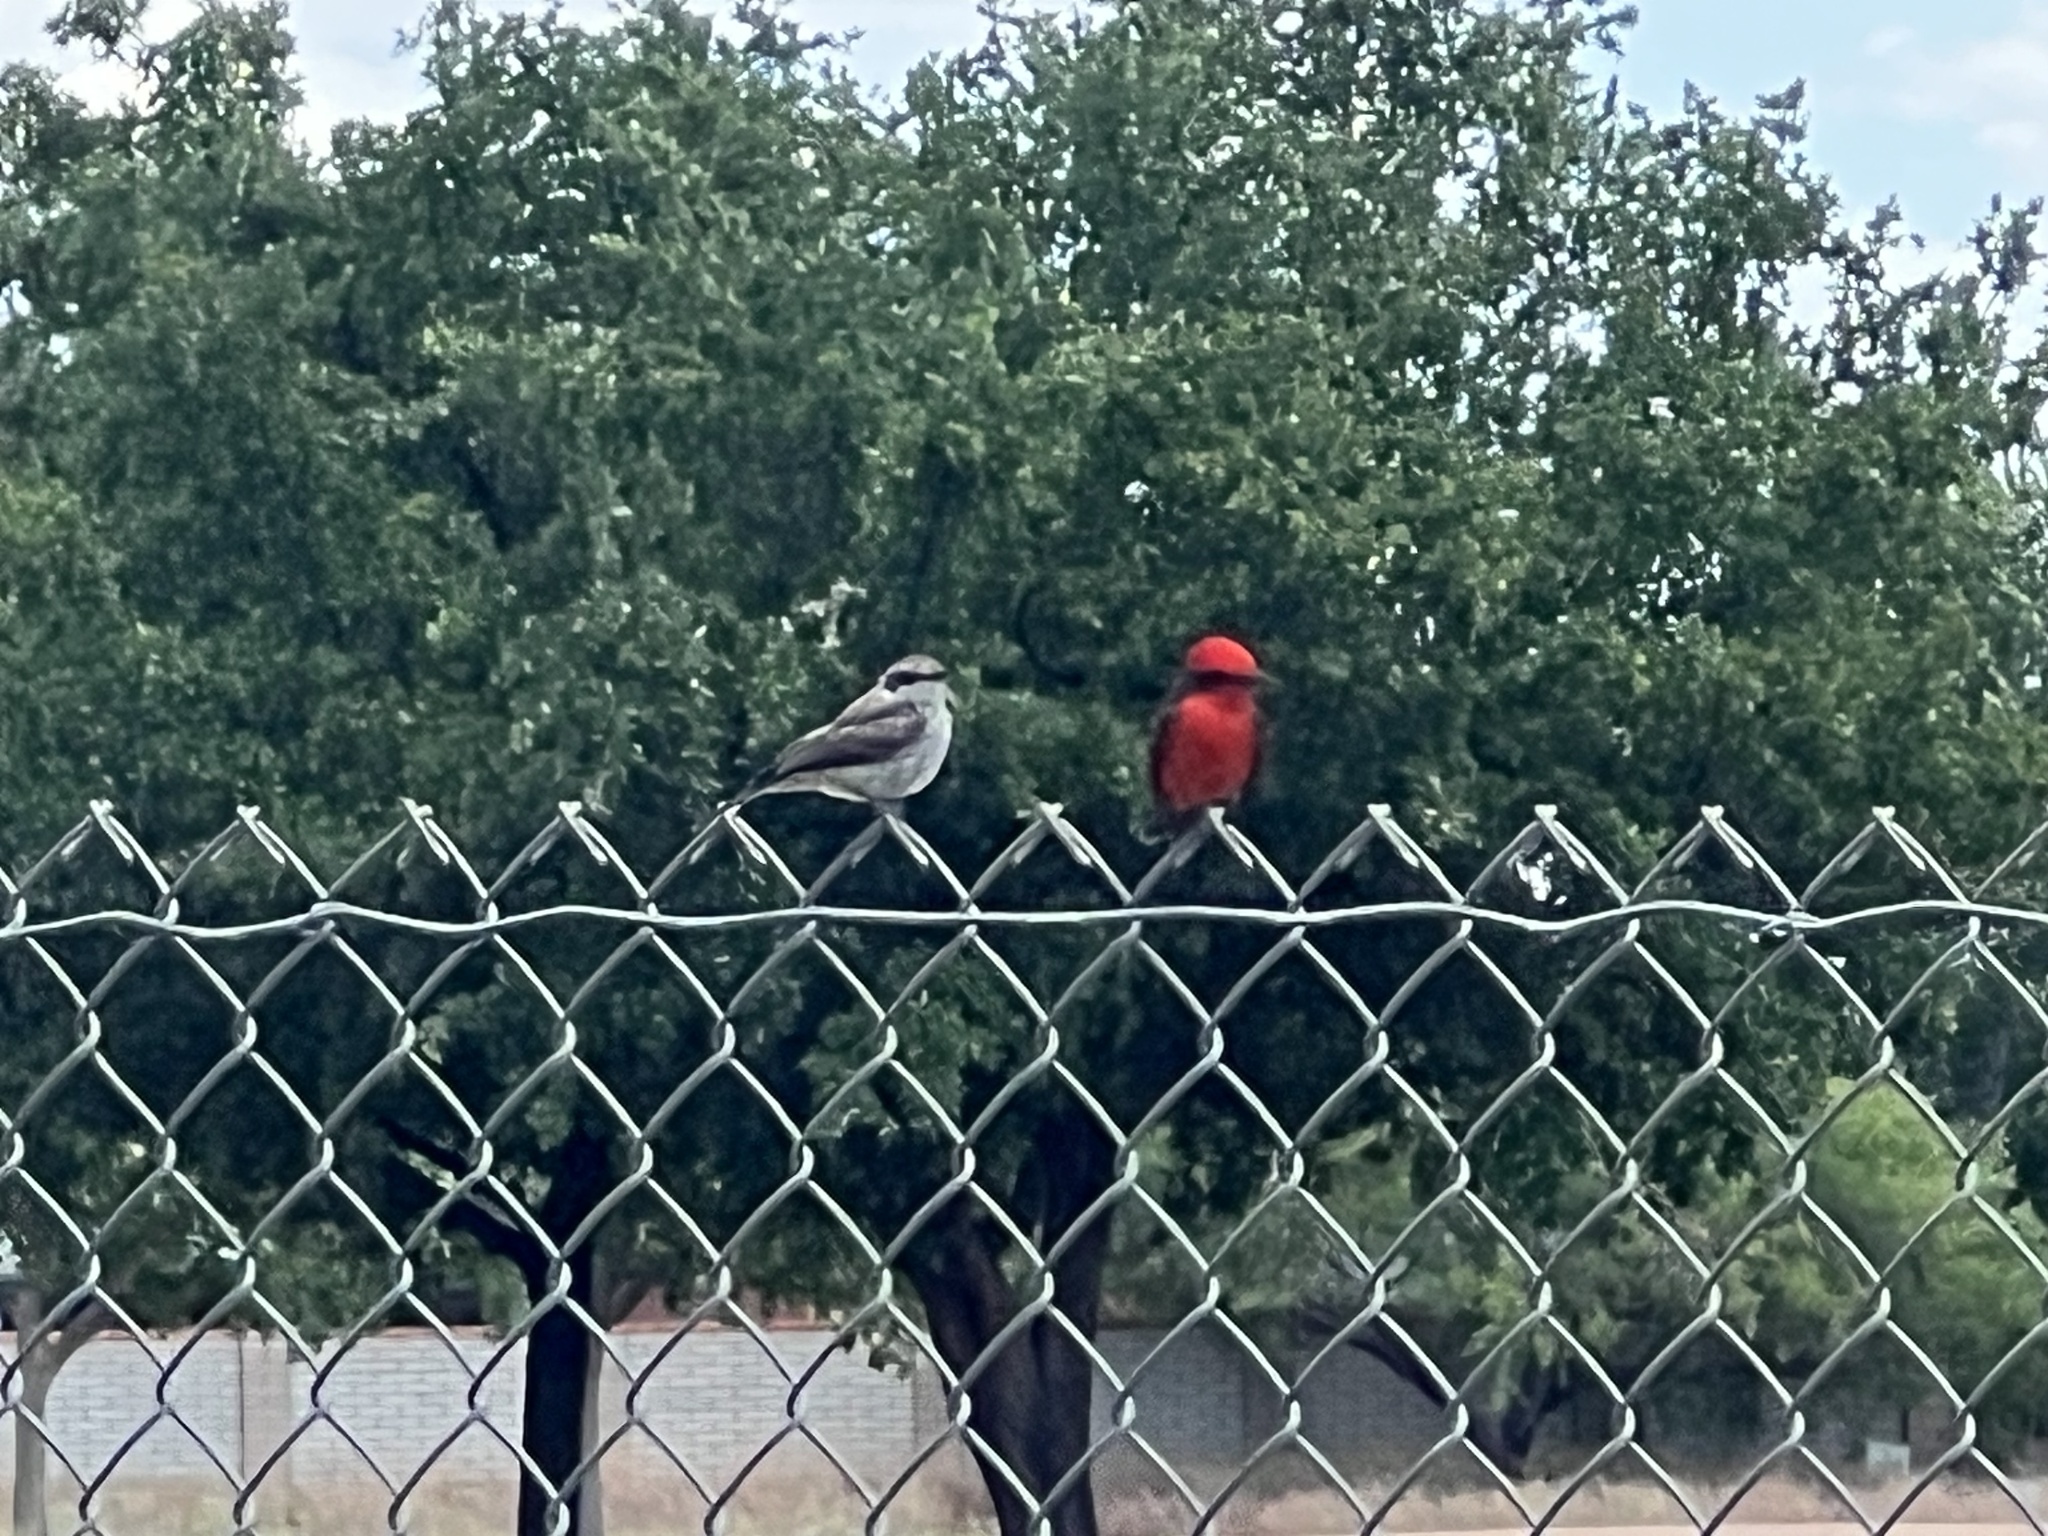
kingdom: Animalia
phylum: Chordata
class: Aves
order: Passeriformes
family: Tyrannidae
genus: Pyrocephalus
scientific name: Pyrocephalus rubinus
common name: Vermilion flycatcher
